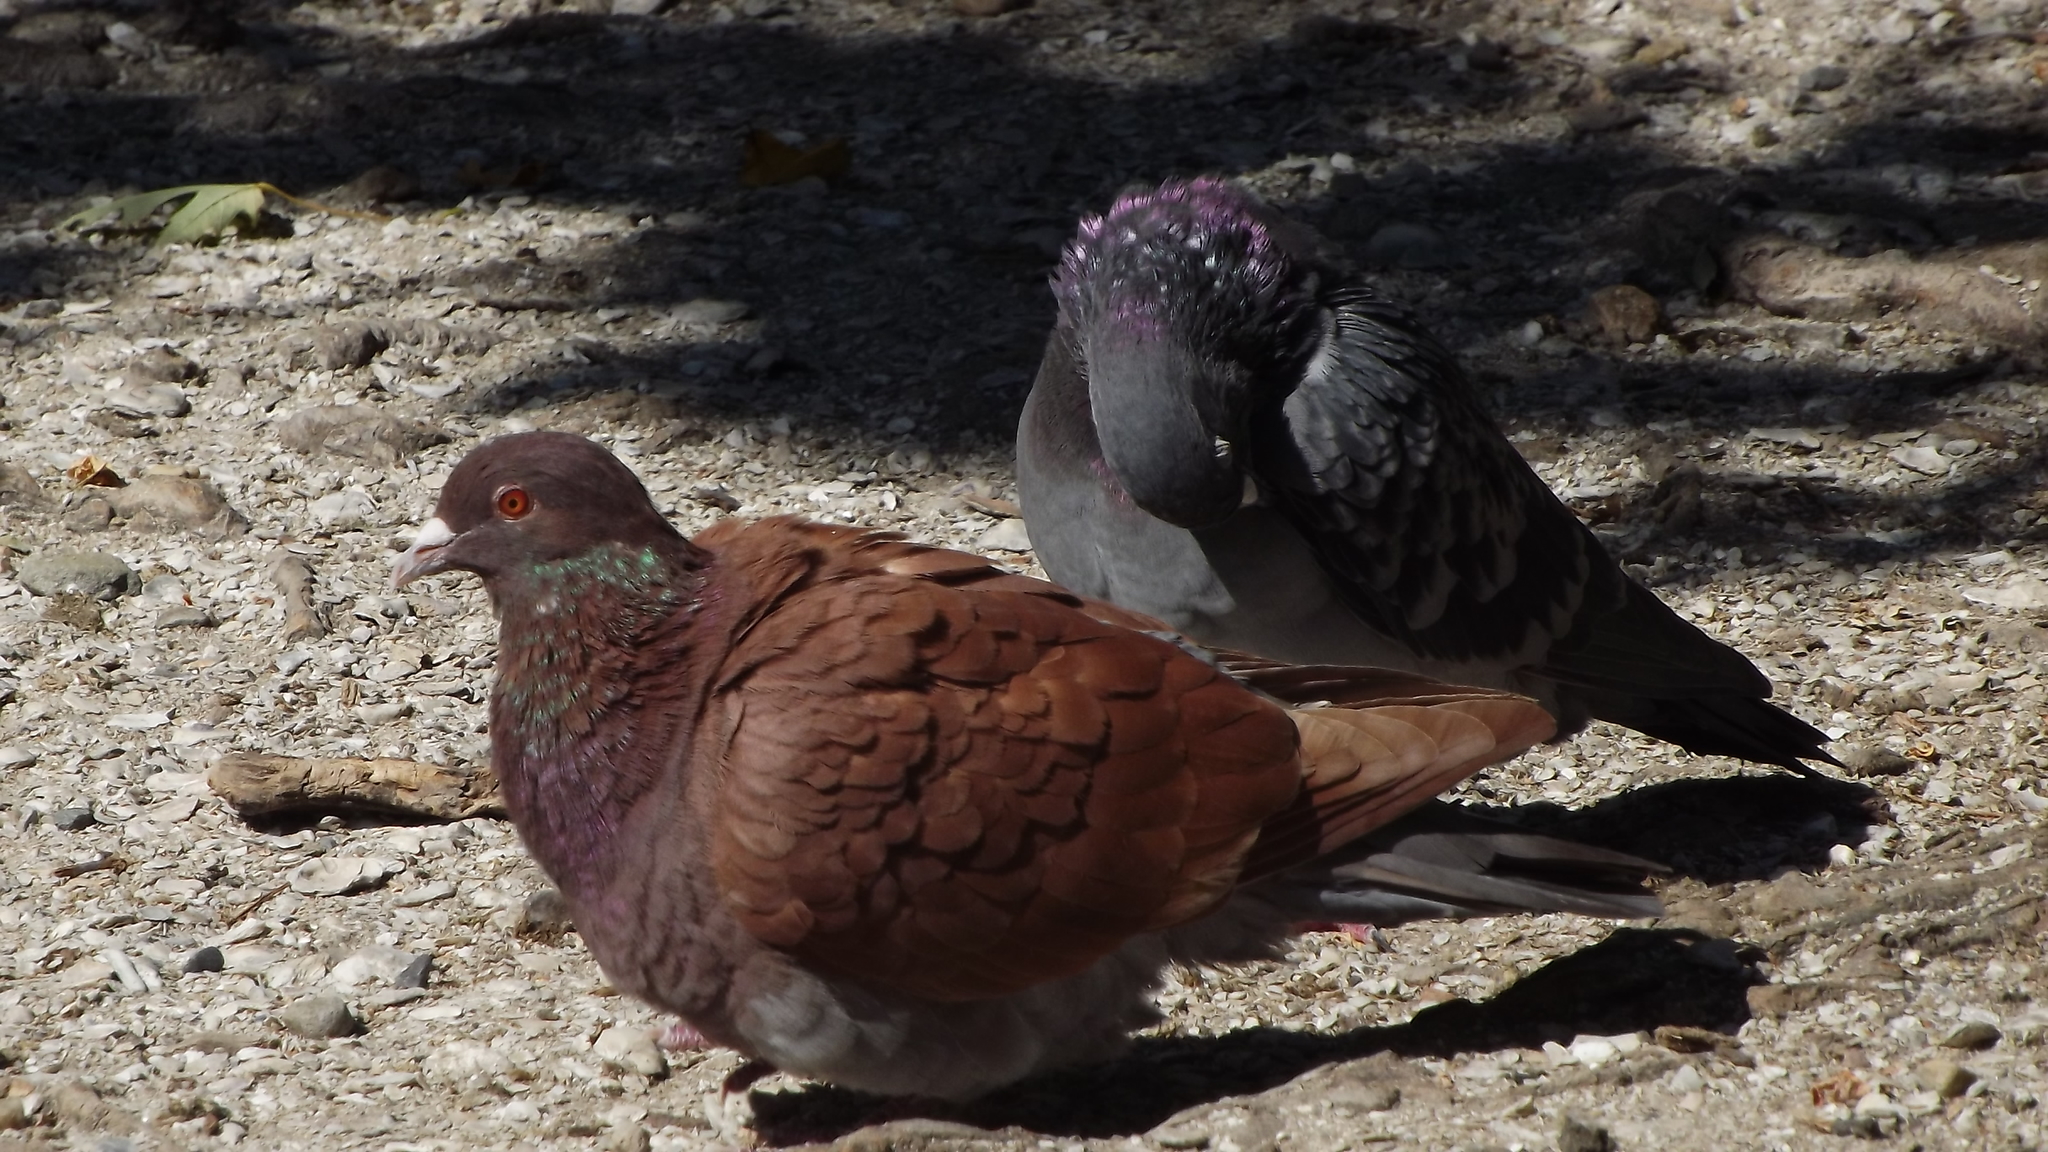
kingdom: Animalia
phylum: Chordata
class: Aves
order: Columbiformes
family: Columbidae
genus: Columba
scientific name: Columba livia
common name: Rock pigeon
